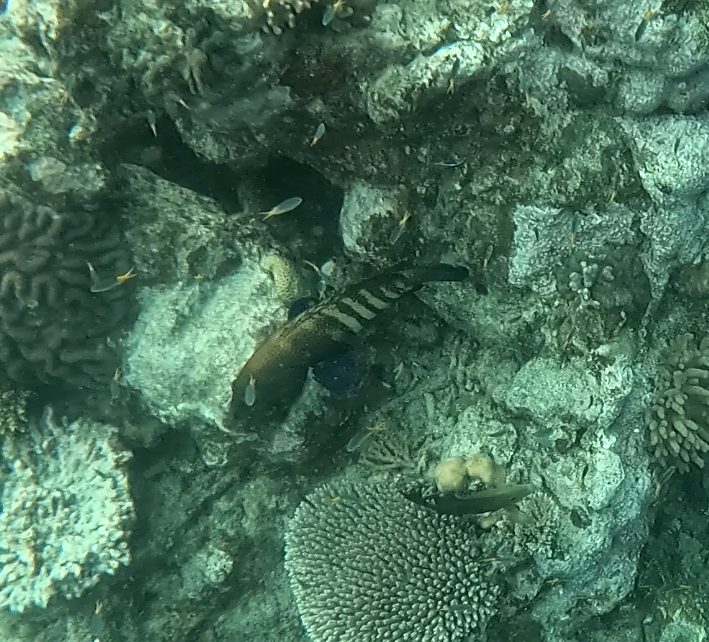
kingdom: Animalia
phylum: Chordata
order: Perciformes
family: Serranidae
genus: Cephalopholis
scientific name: Cephalopholis argus
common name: Peacock grouper
